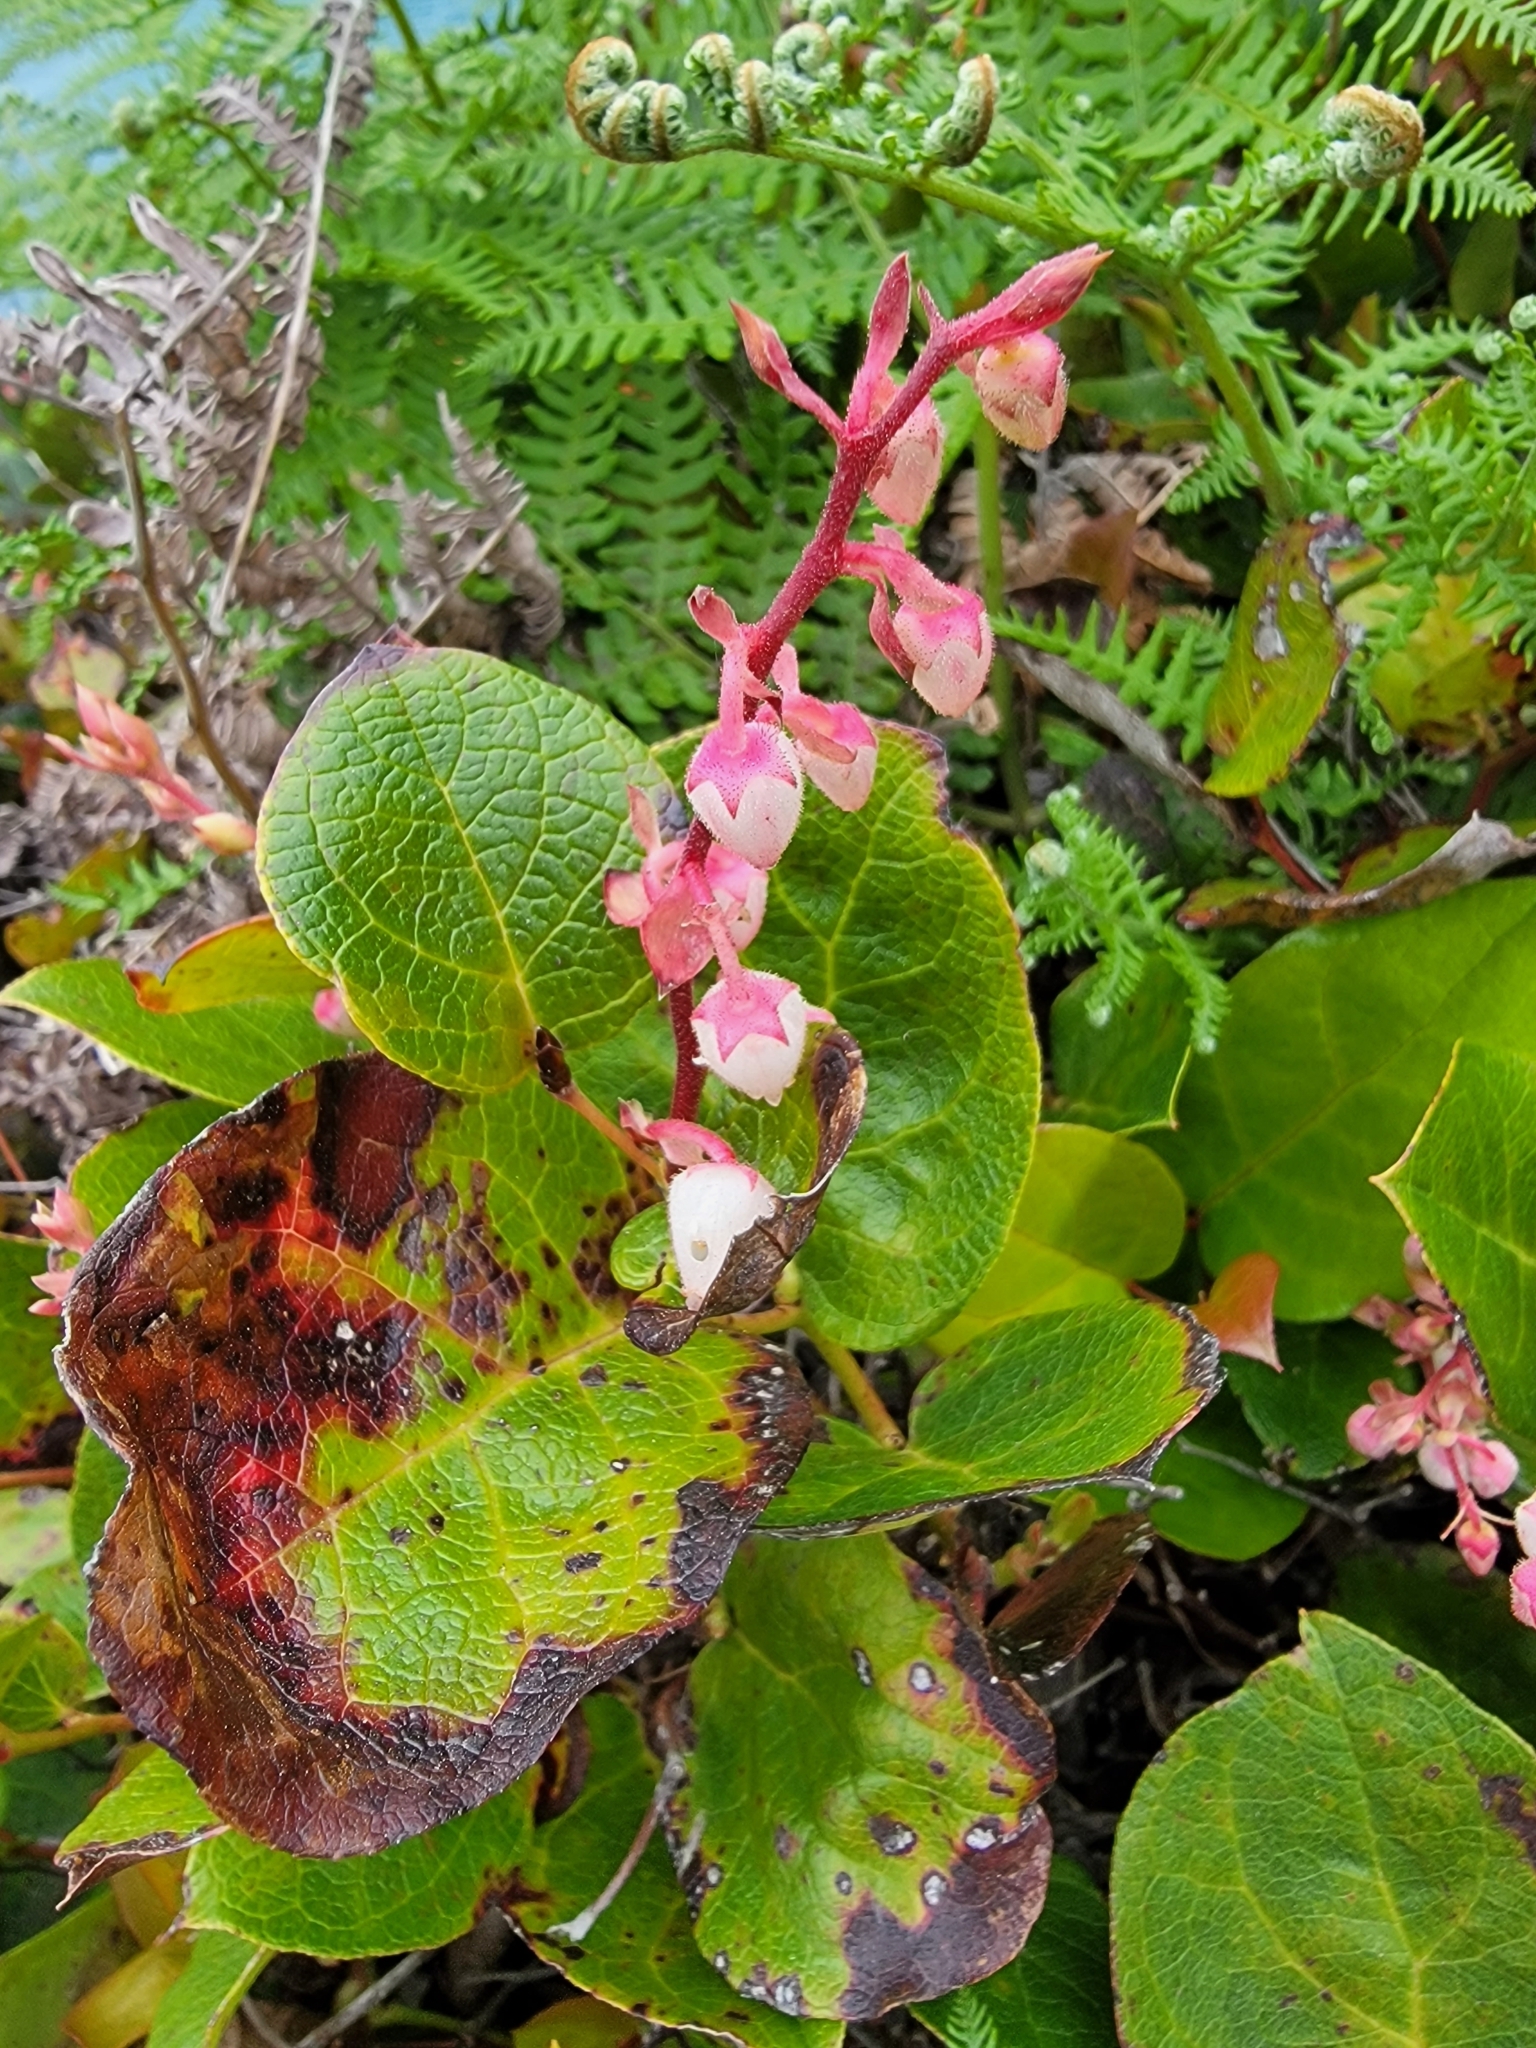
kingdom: Plantae
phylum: Tracheophyta
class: Magnoliopsida
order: Ericales
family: Ericaceae
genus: Gaultheria
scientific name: Gaultheria shallon
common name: Shallon
